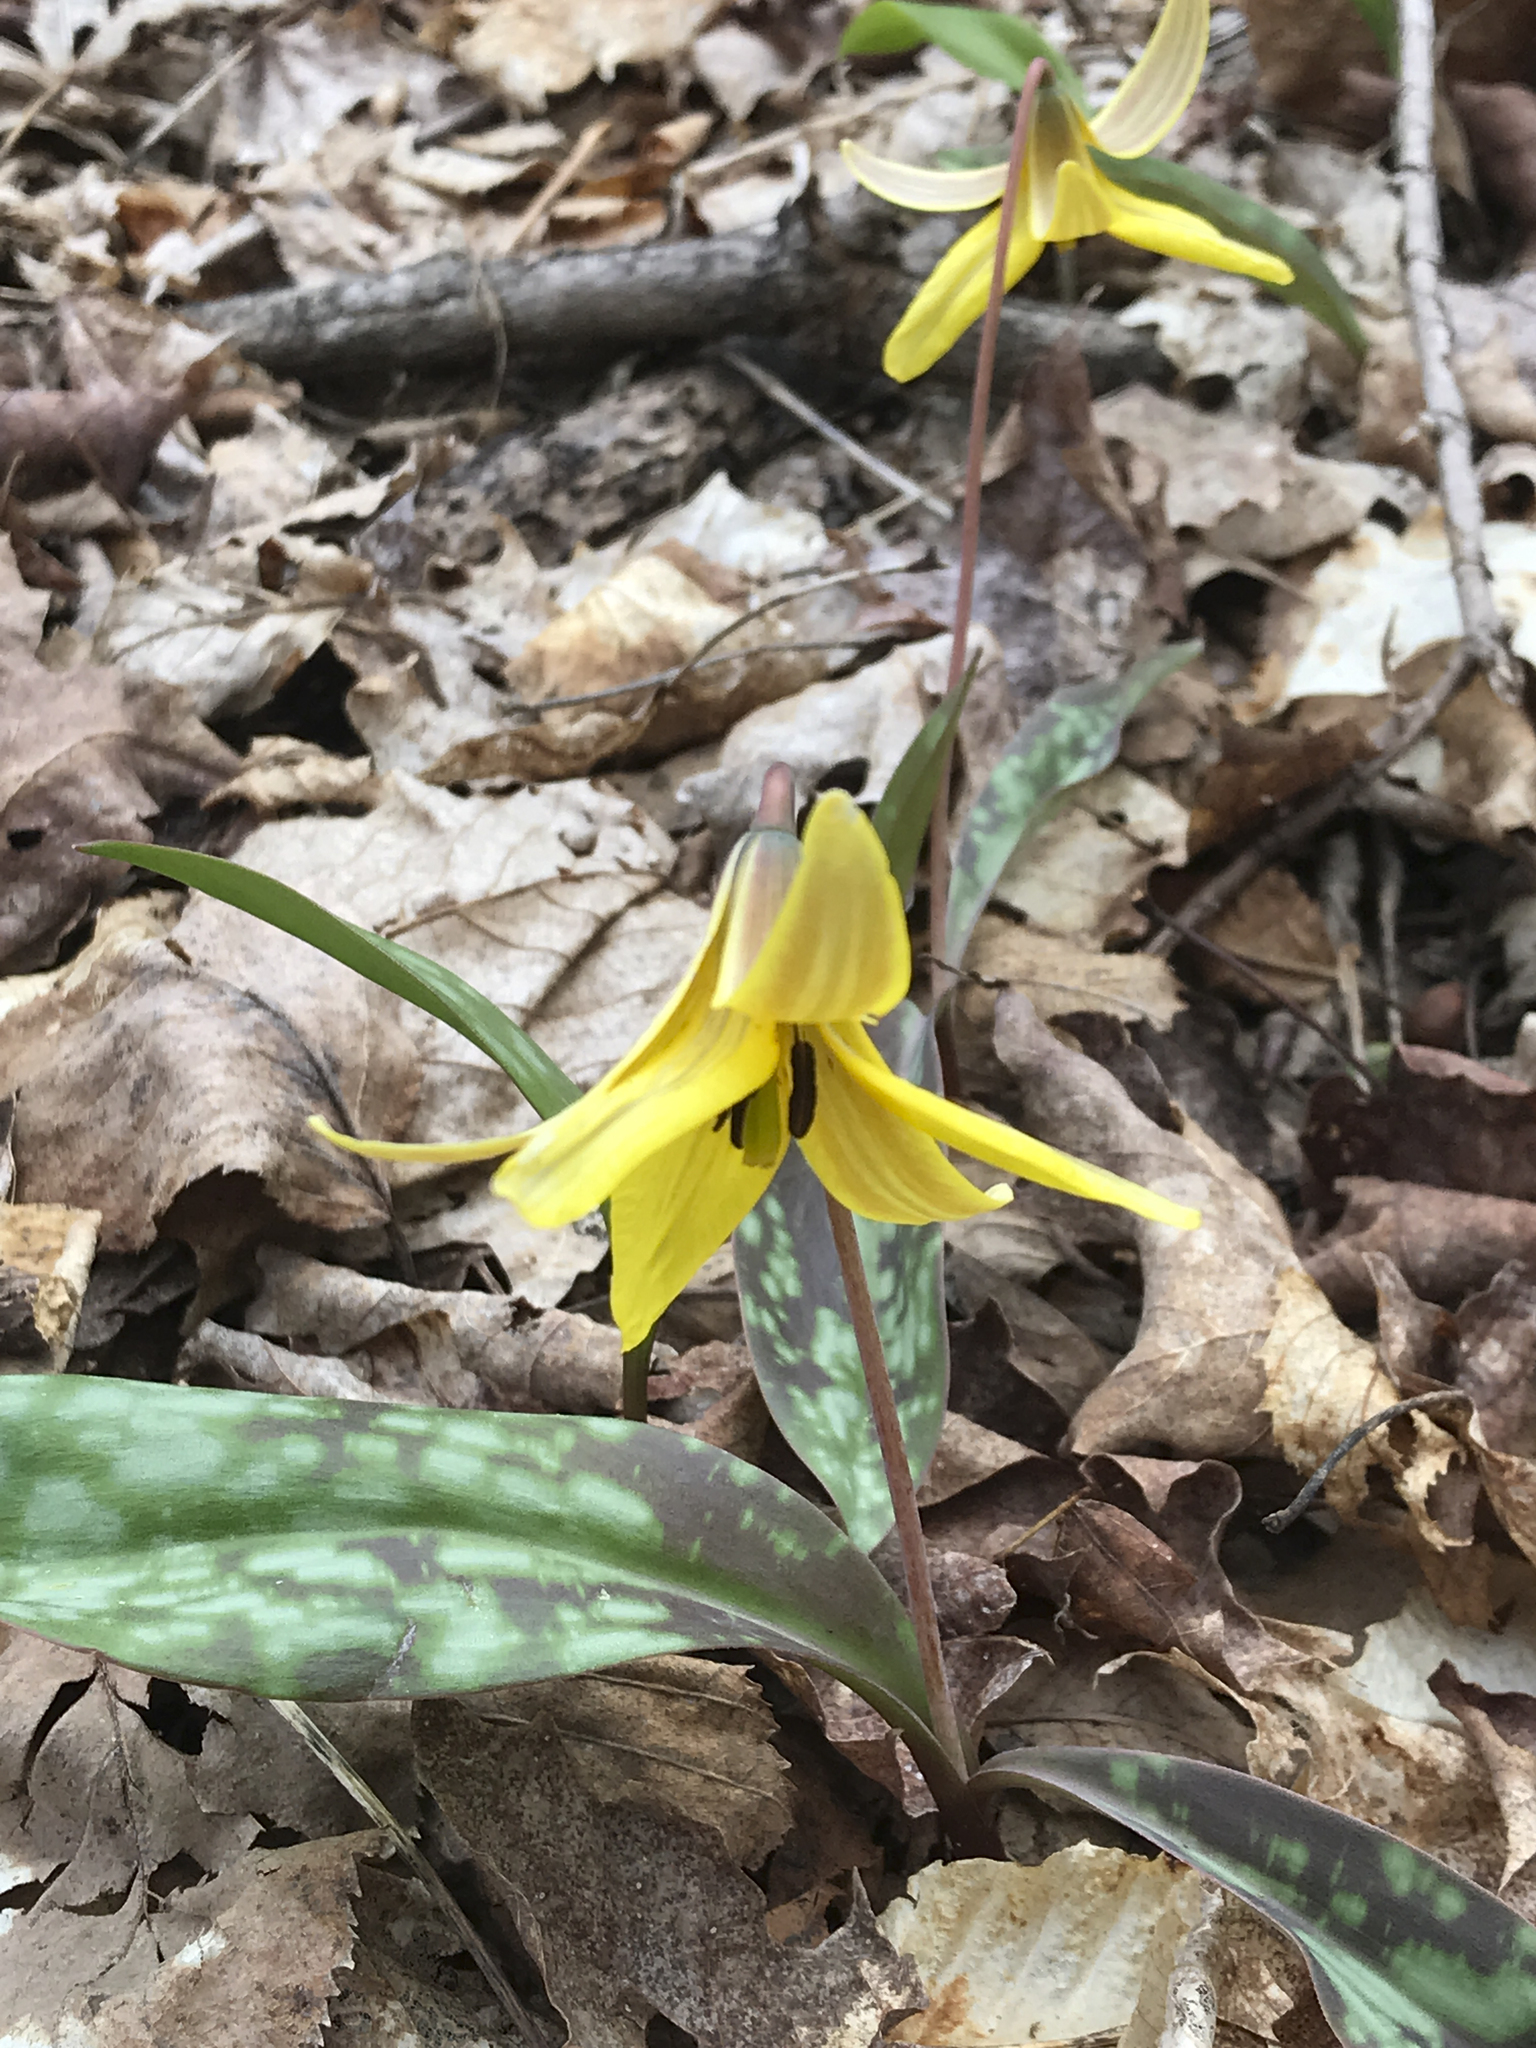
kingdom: Plantae
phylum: Tracheophyta
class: Liliopsida
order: Liliales
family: Liliaceae
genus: Erythronium
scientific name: Erythronium americanum
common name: Yellow adder's-tongue
